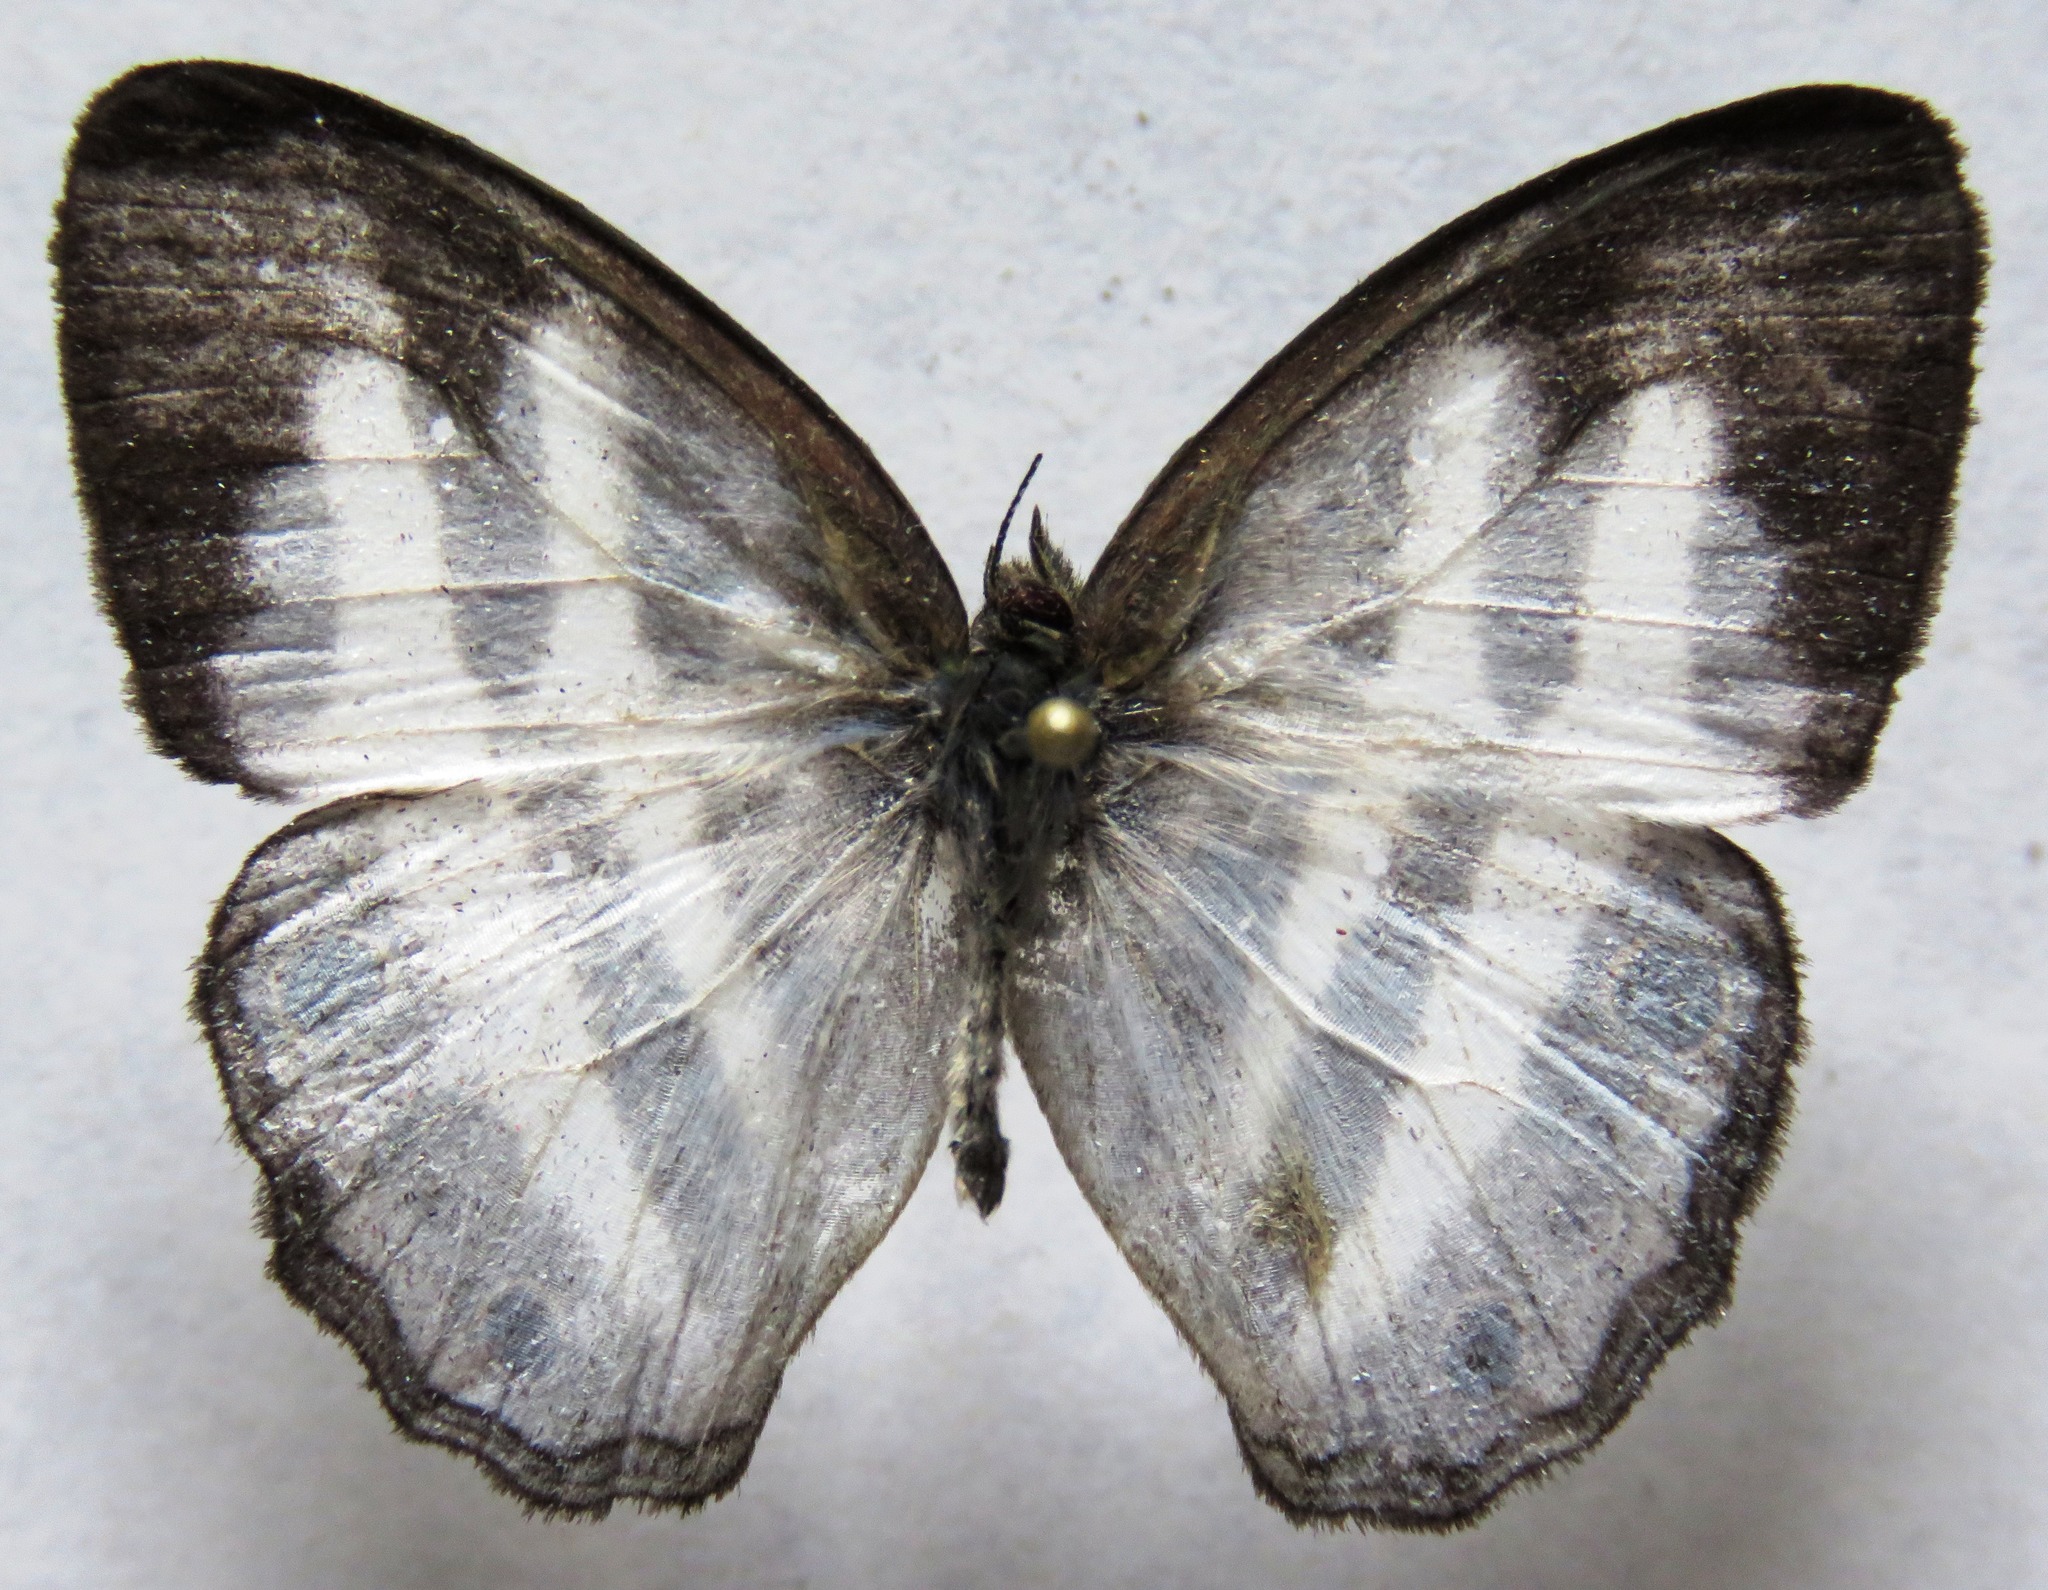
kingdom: Animalia
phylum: Arthropoda
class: Insecta
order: Lepidoptera
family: Nymphalidae
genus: Pareuptychia
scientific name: Pareuptychia hesione
